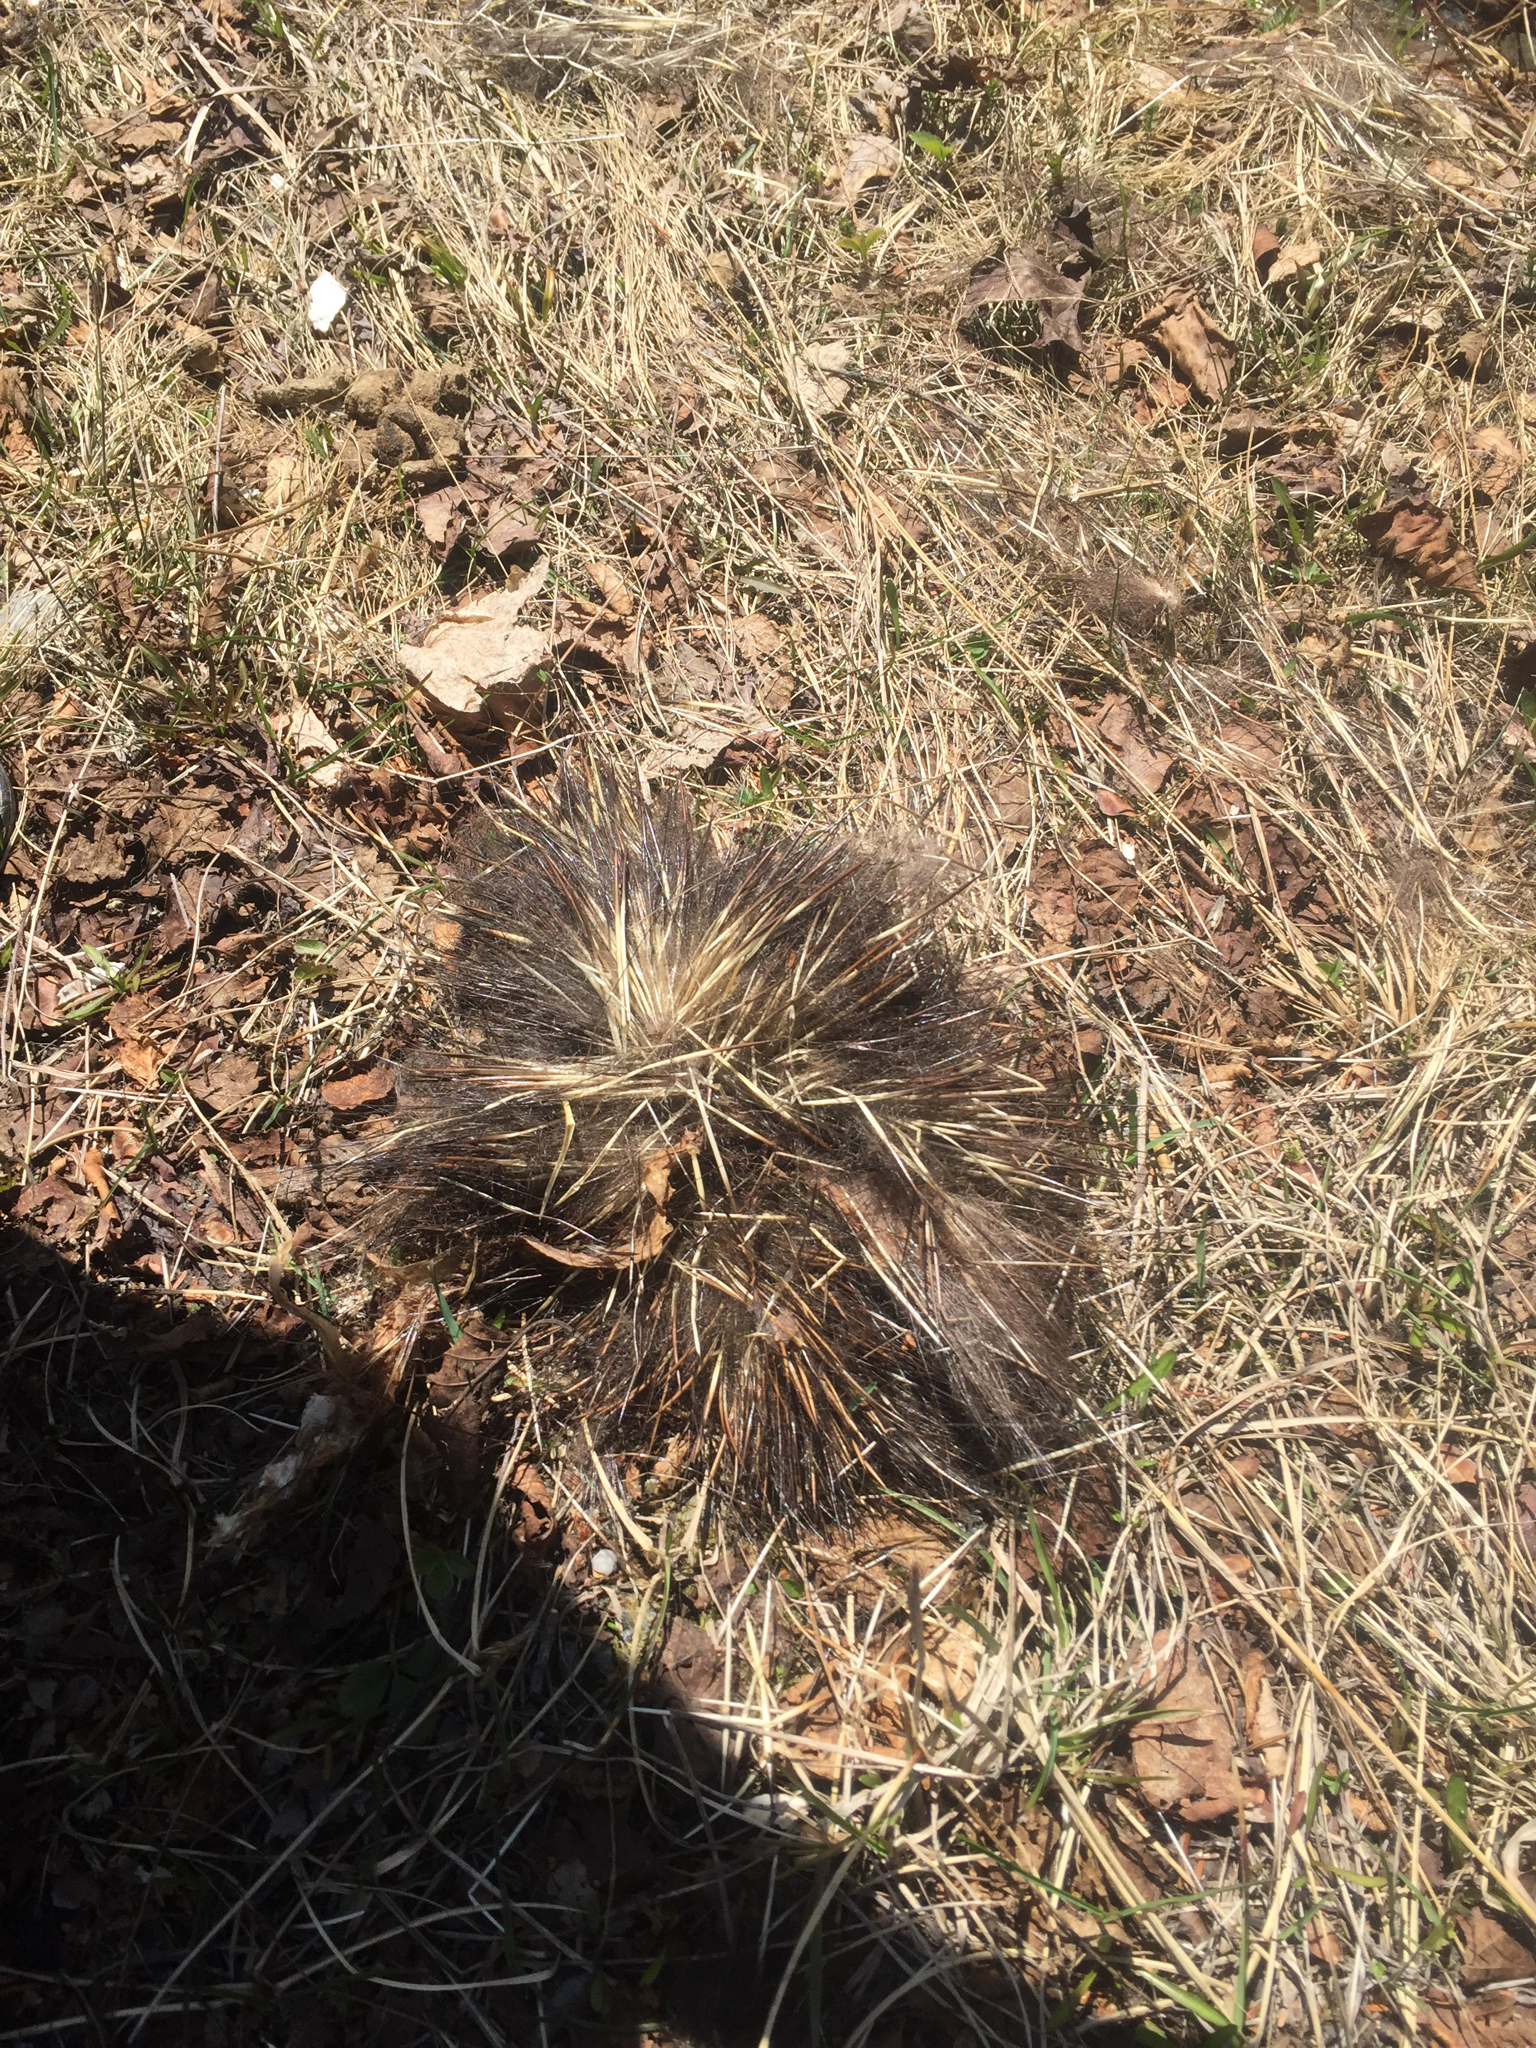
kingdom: Animalia
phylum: Chordata
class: Mammalia
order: Rodentia
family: Erethizontidae
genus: Erethizon
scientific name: Erethizon dorsatus
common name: North american porcupine
